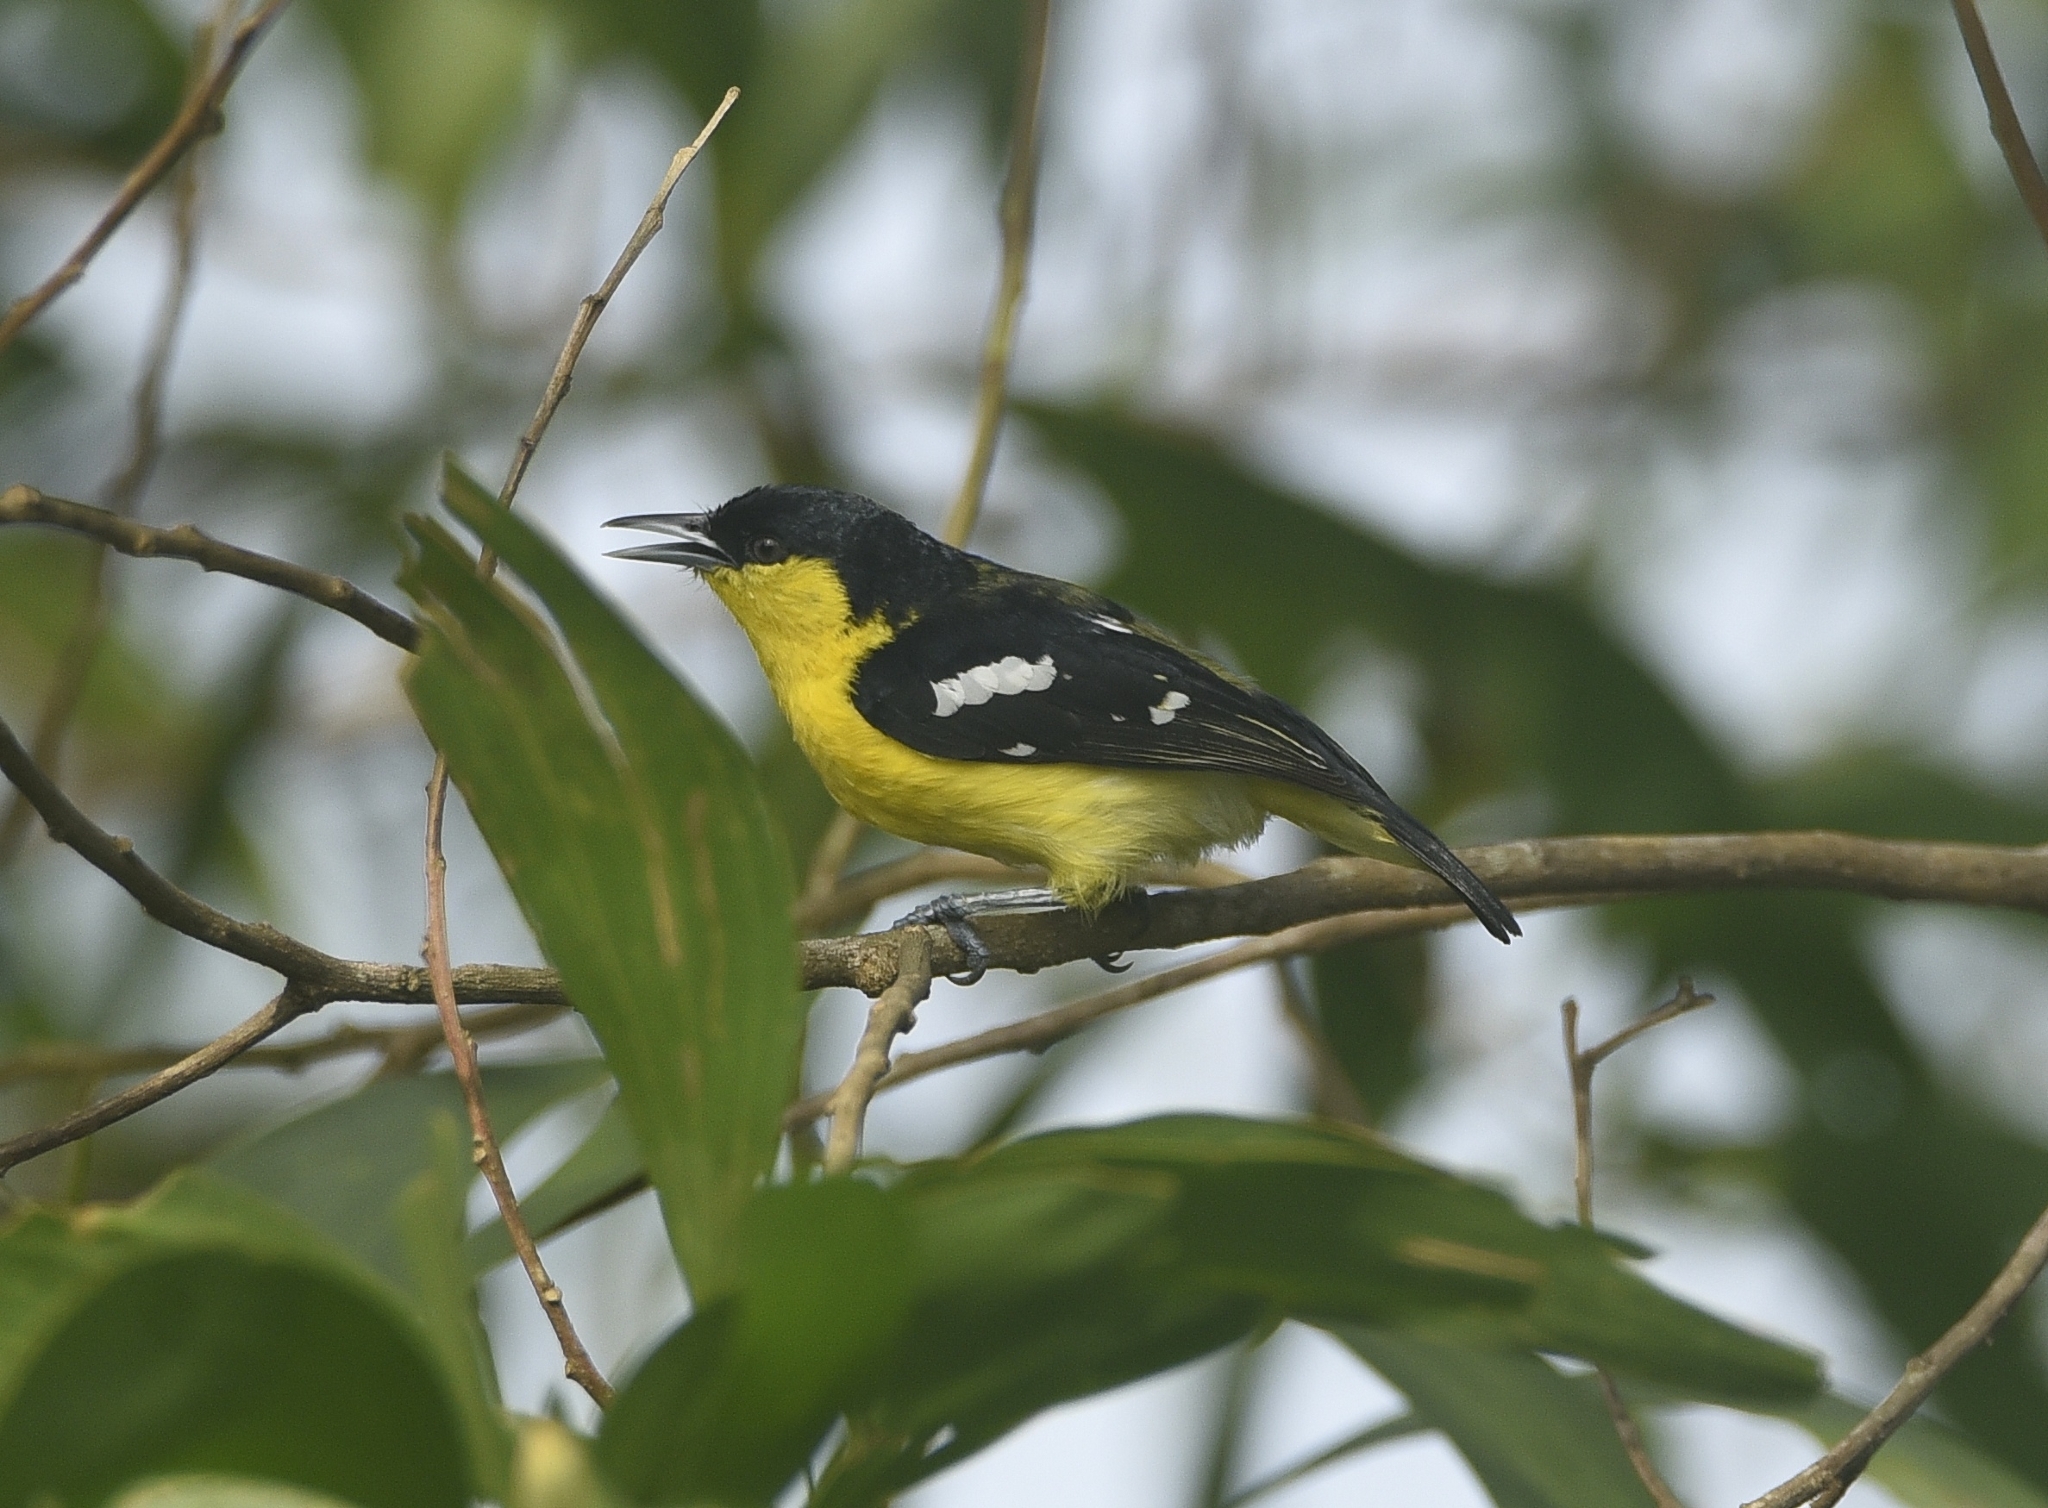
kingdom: Animalia
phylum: Chordata
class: Aves
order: Passeriformes
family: Aegithinidae
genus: Aegithina
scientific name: Aegithina tiphia
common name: Common iora
